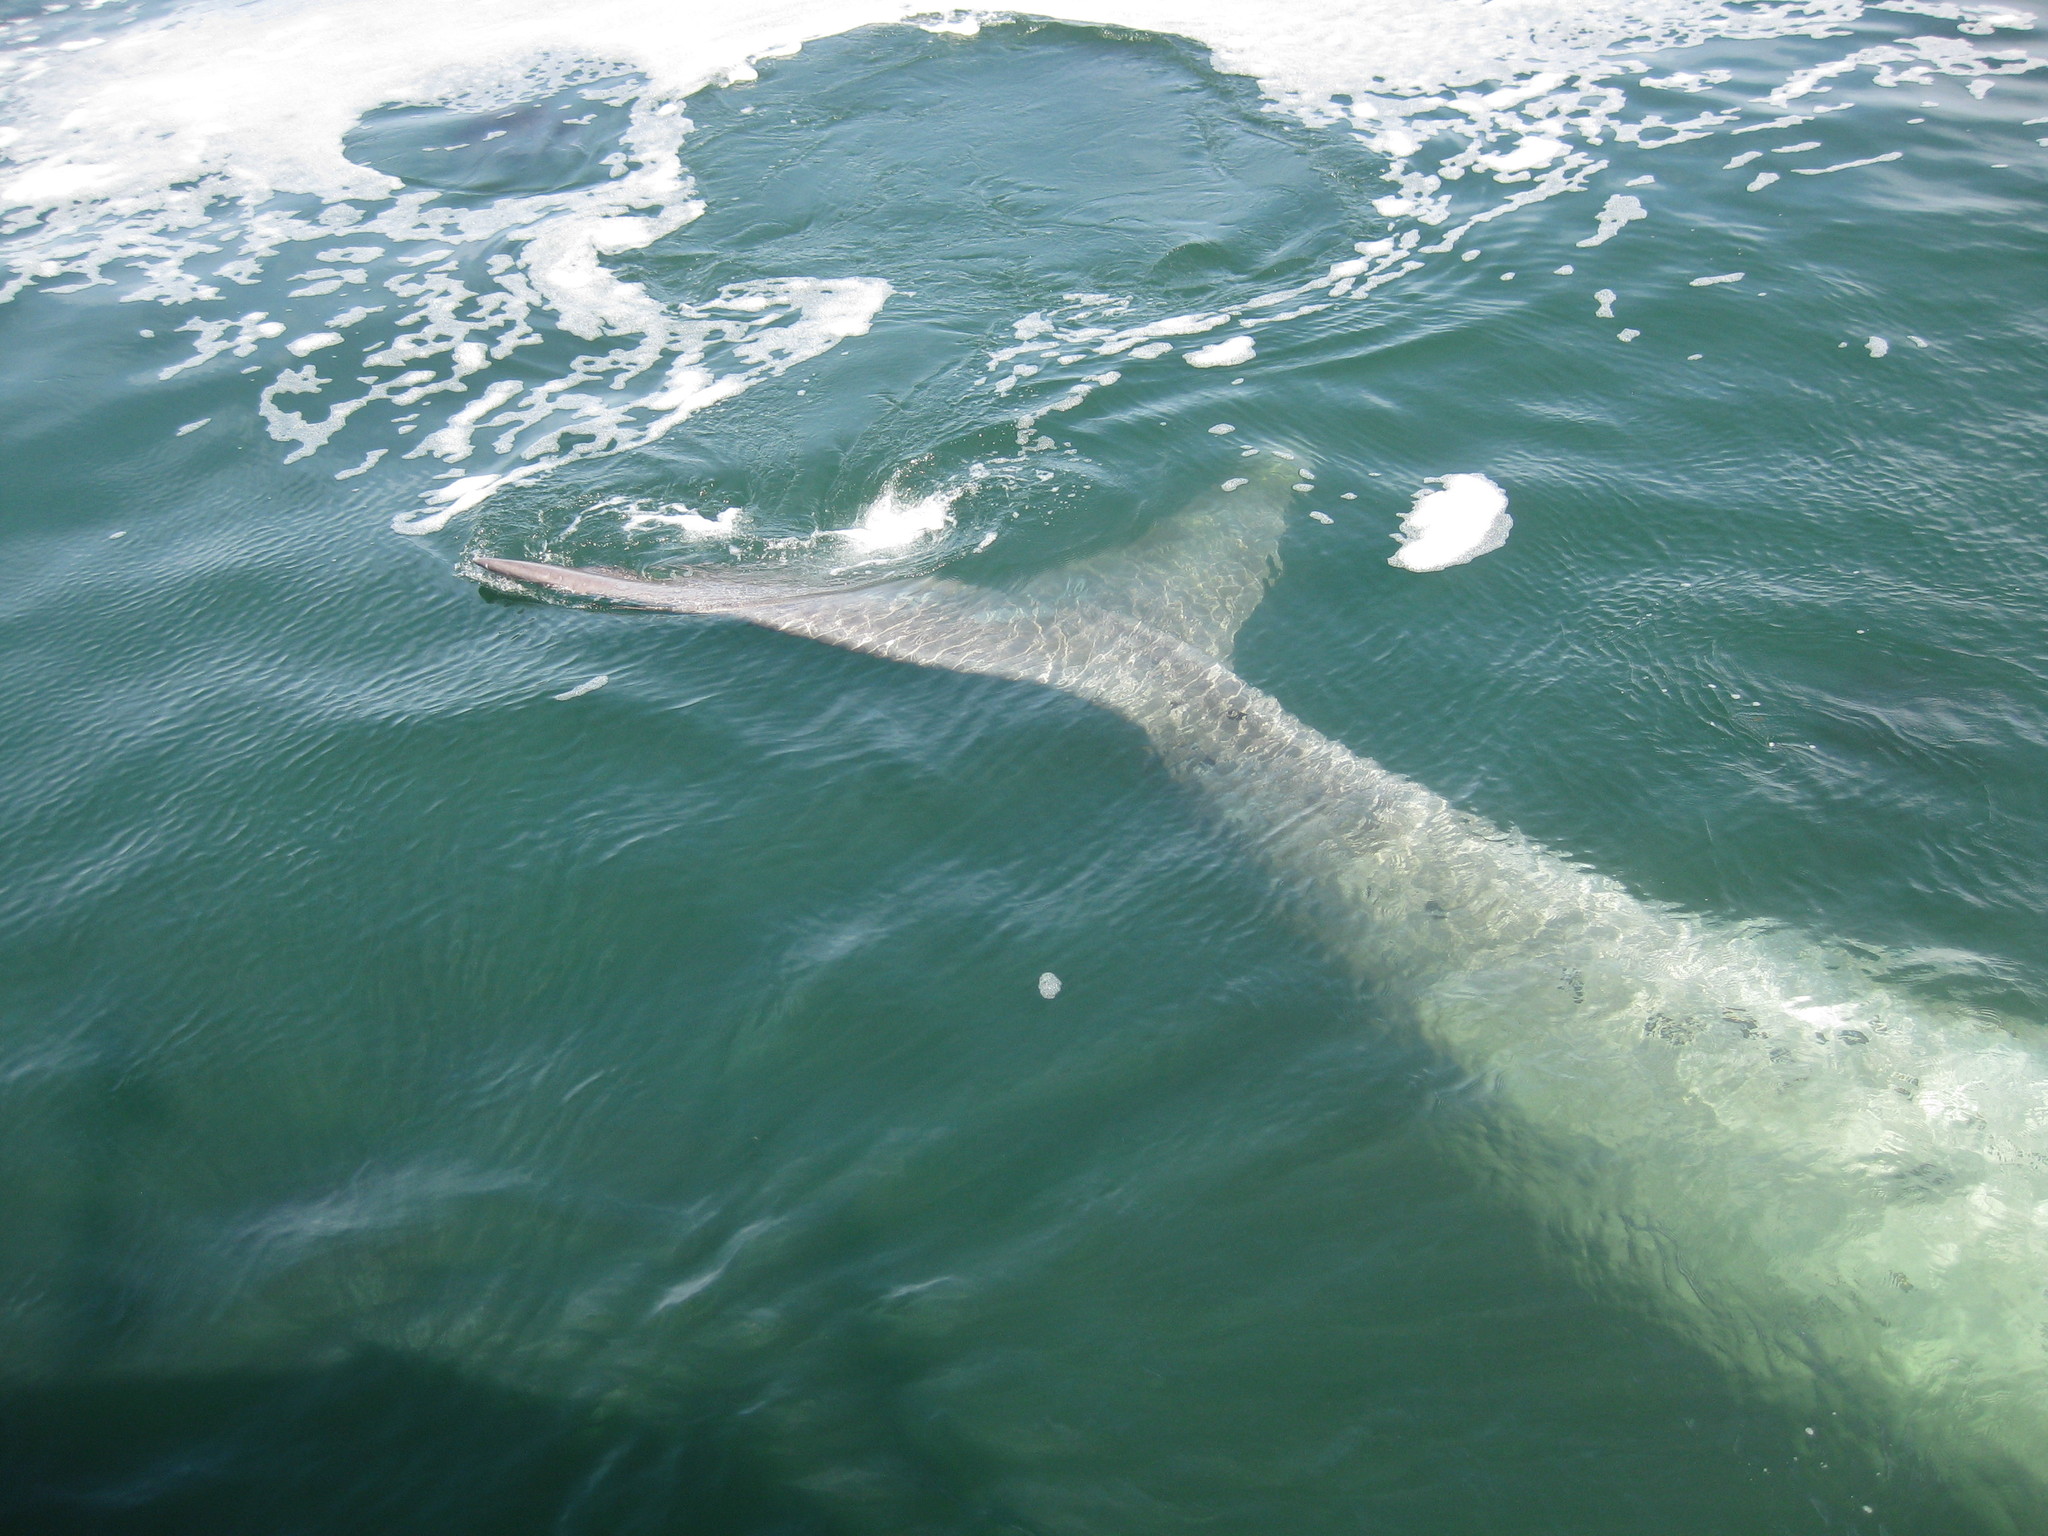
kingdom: Animalia
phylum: Chordata
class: Mammalia
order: Cetacea
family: Balaenidae
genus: Eubalaena
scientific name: Eubalaena australis
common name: Southern right whale
